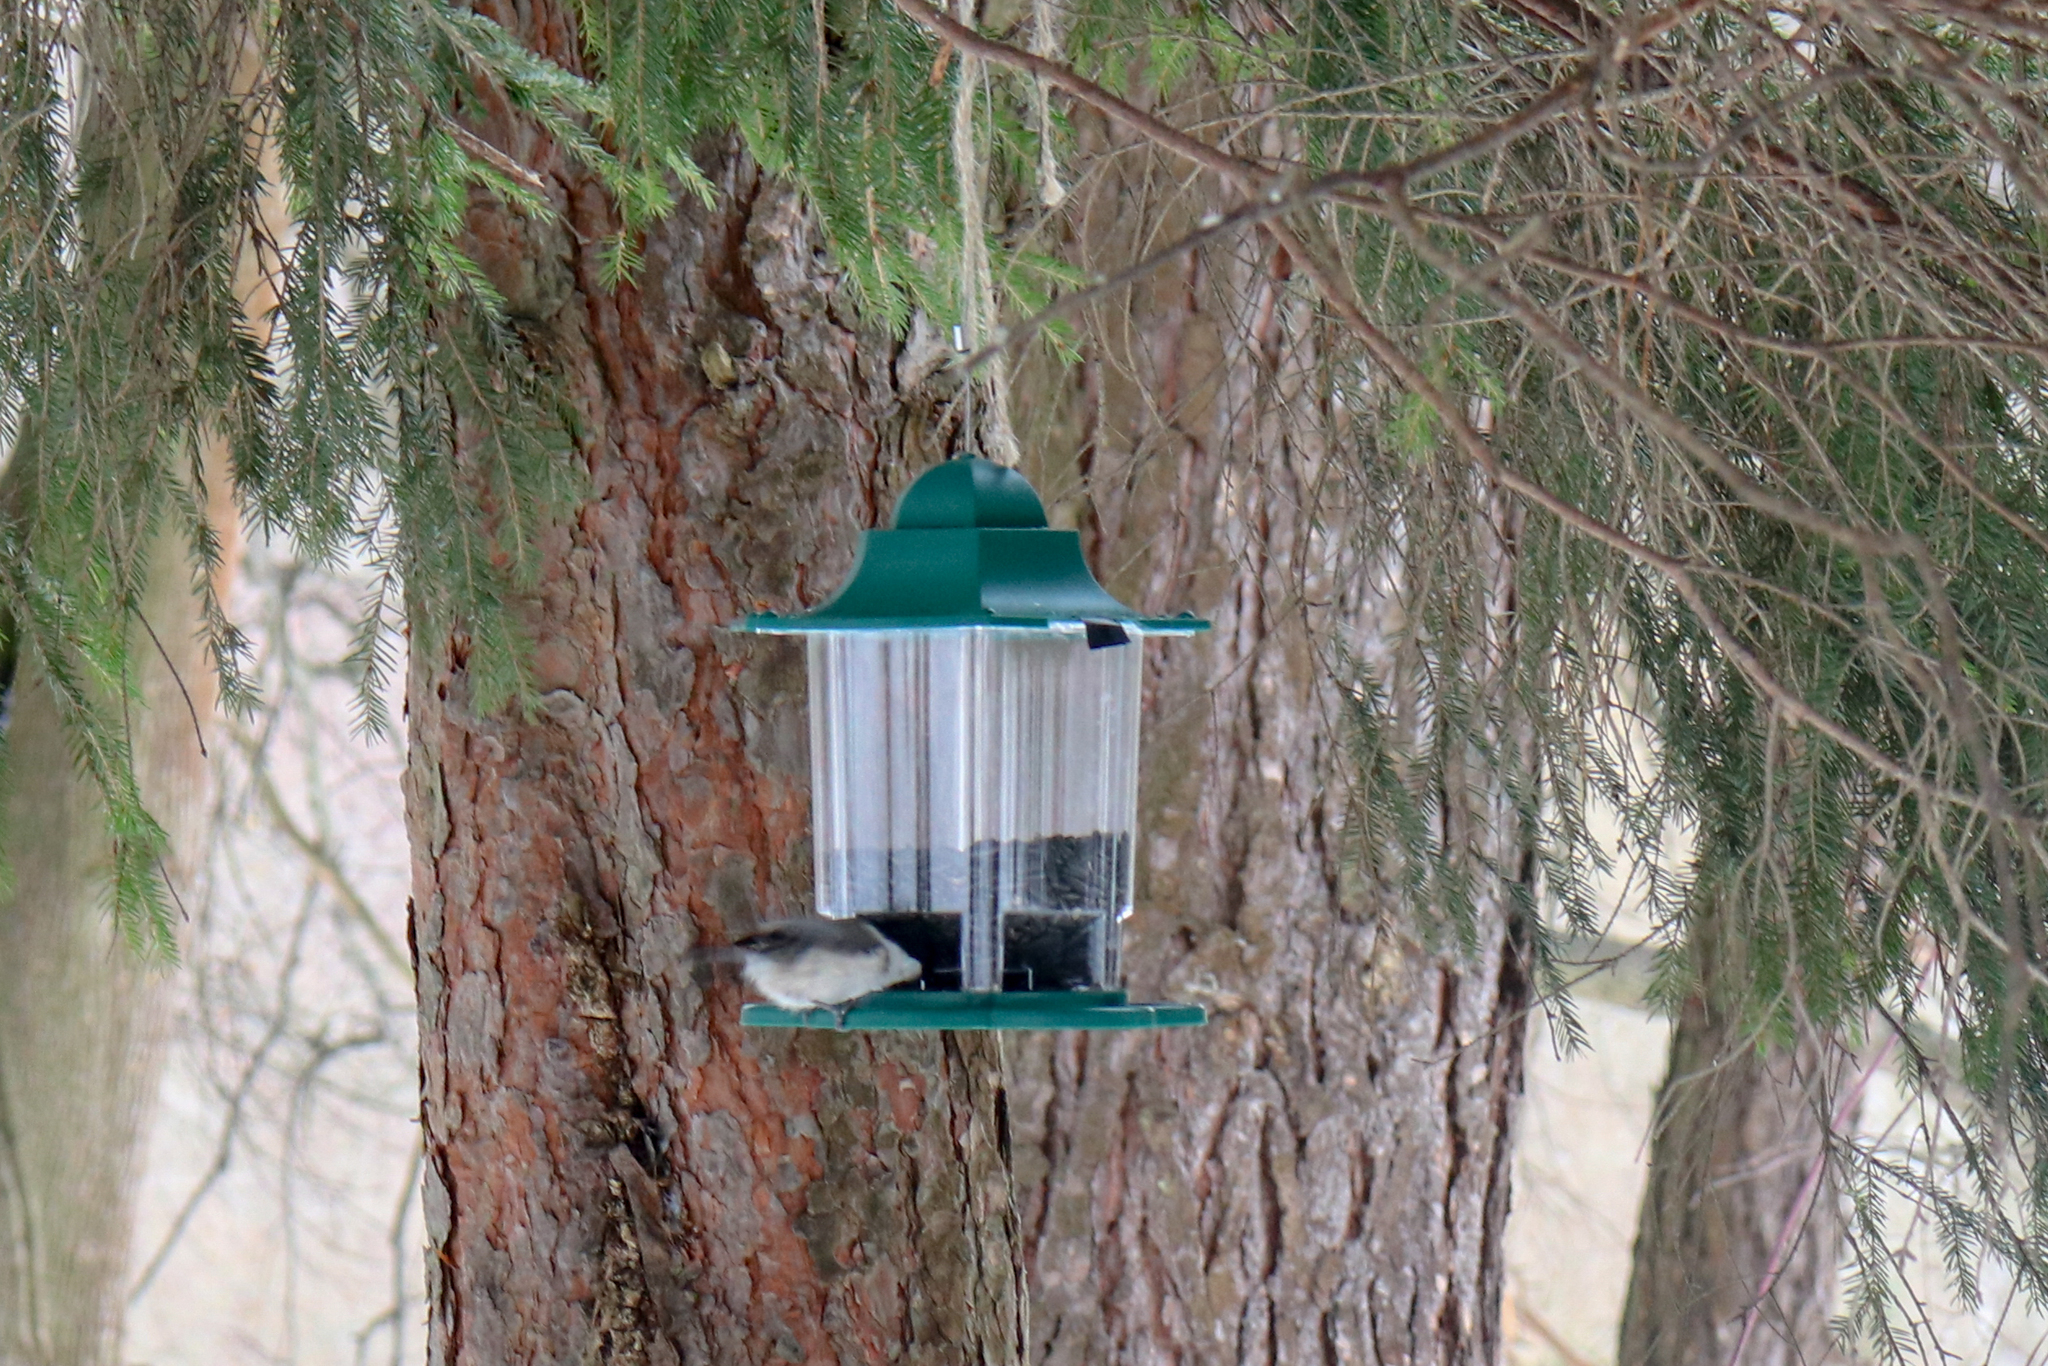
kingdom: Animalia
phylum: Chordata
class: Aves
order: Passeriformes
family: Paridae
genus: Poecile
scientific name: Poecile montanus
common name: Willow tit
